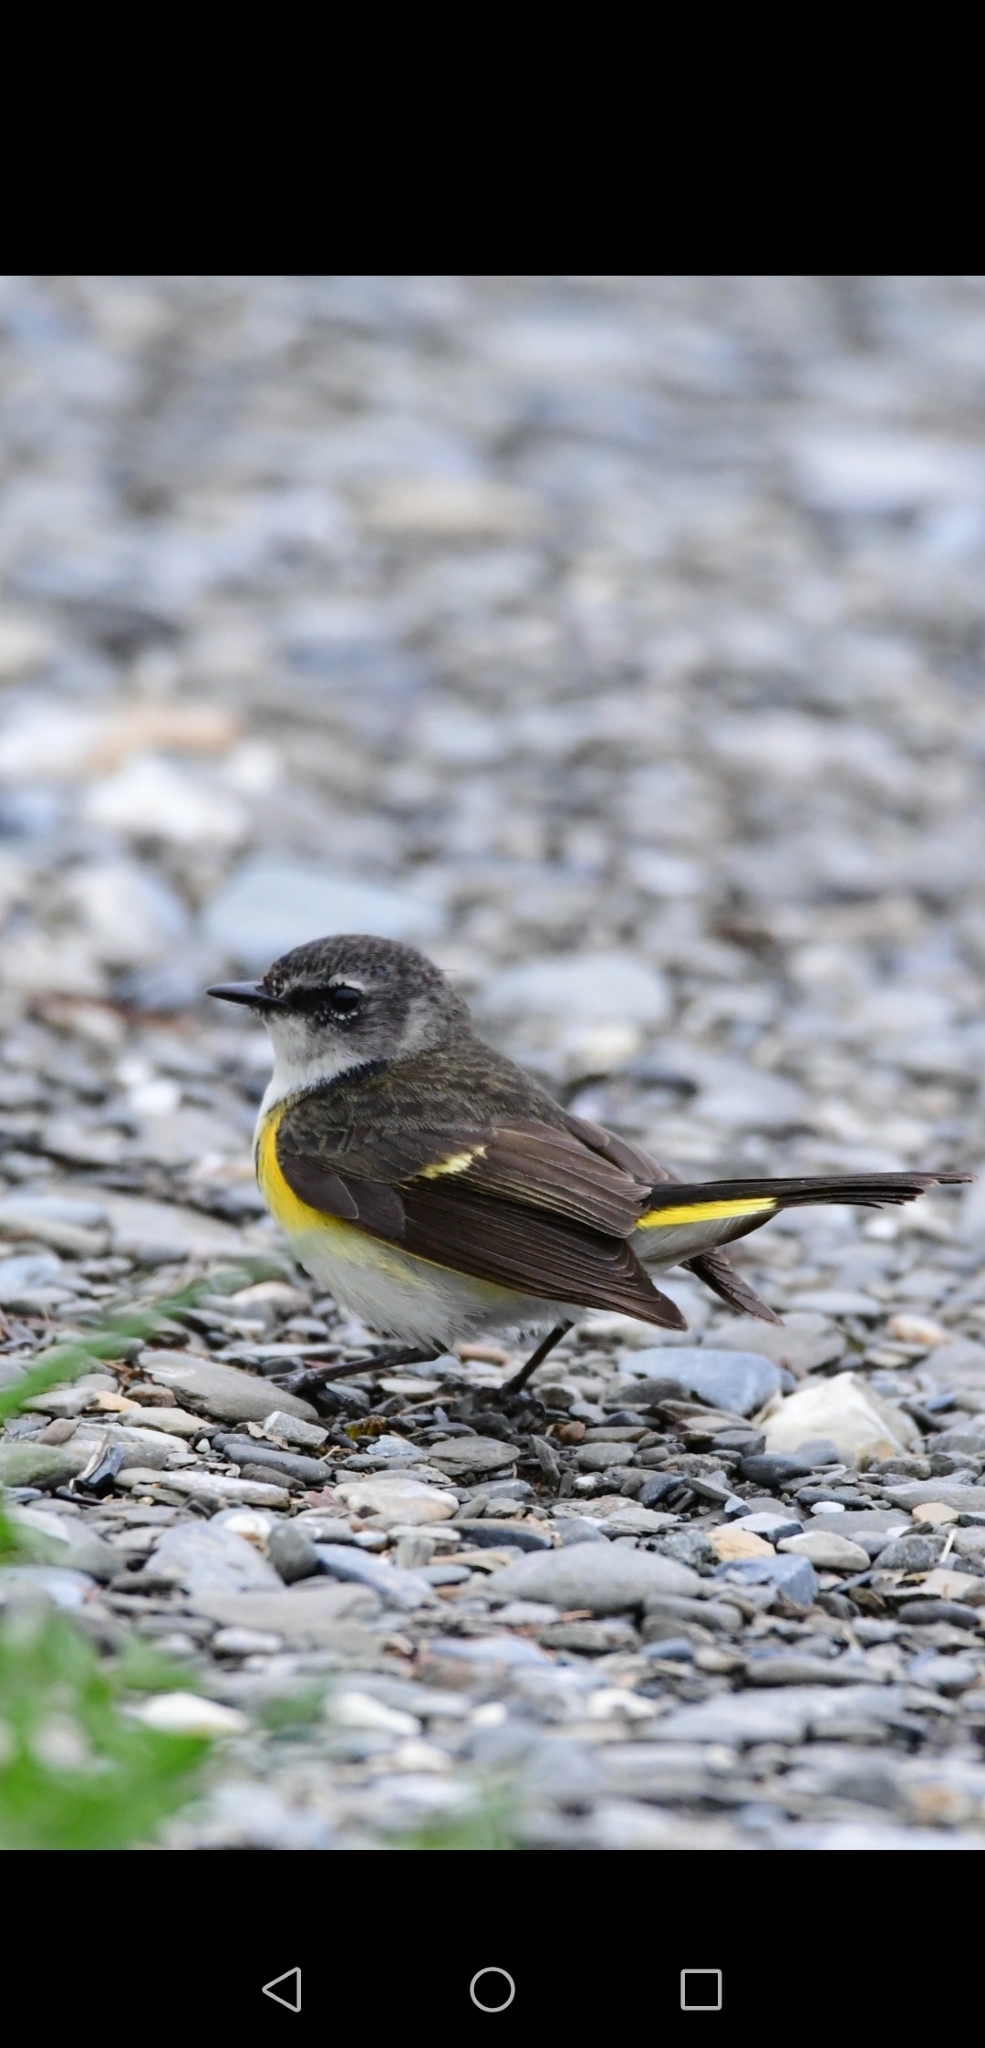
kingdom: Animalia
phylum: Chordata
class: Aves
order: Passeriformes
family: Parulidae
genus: Setophaga
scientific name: Setophaga ruticilla
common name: American redstart
